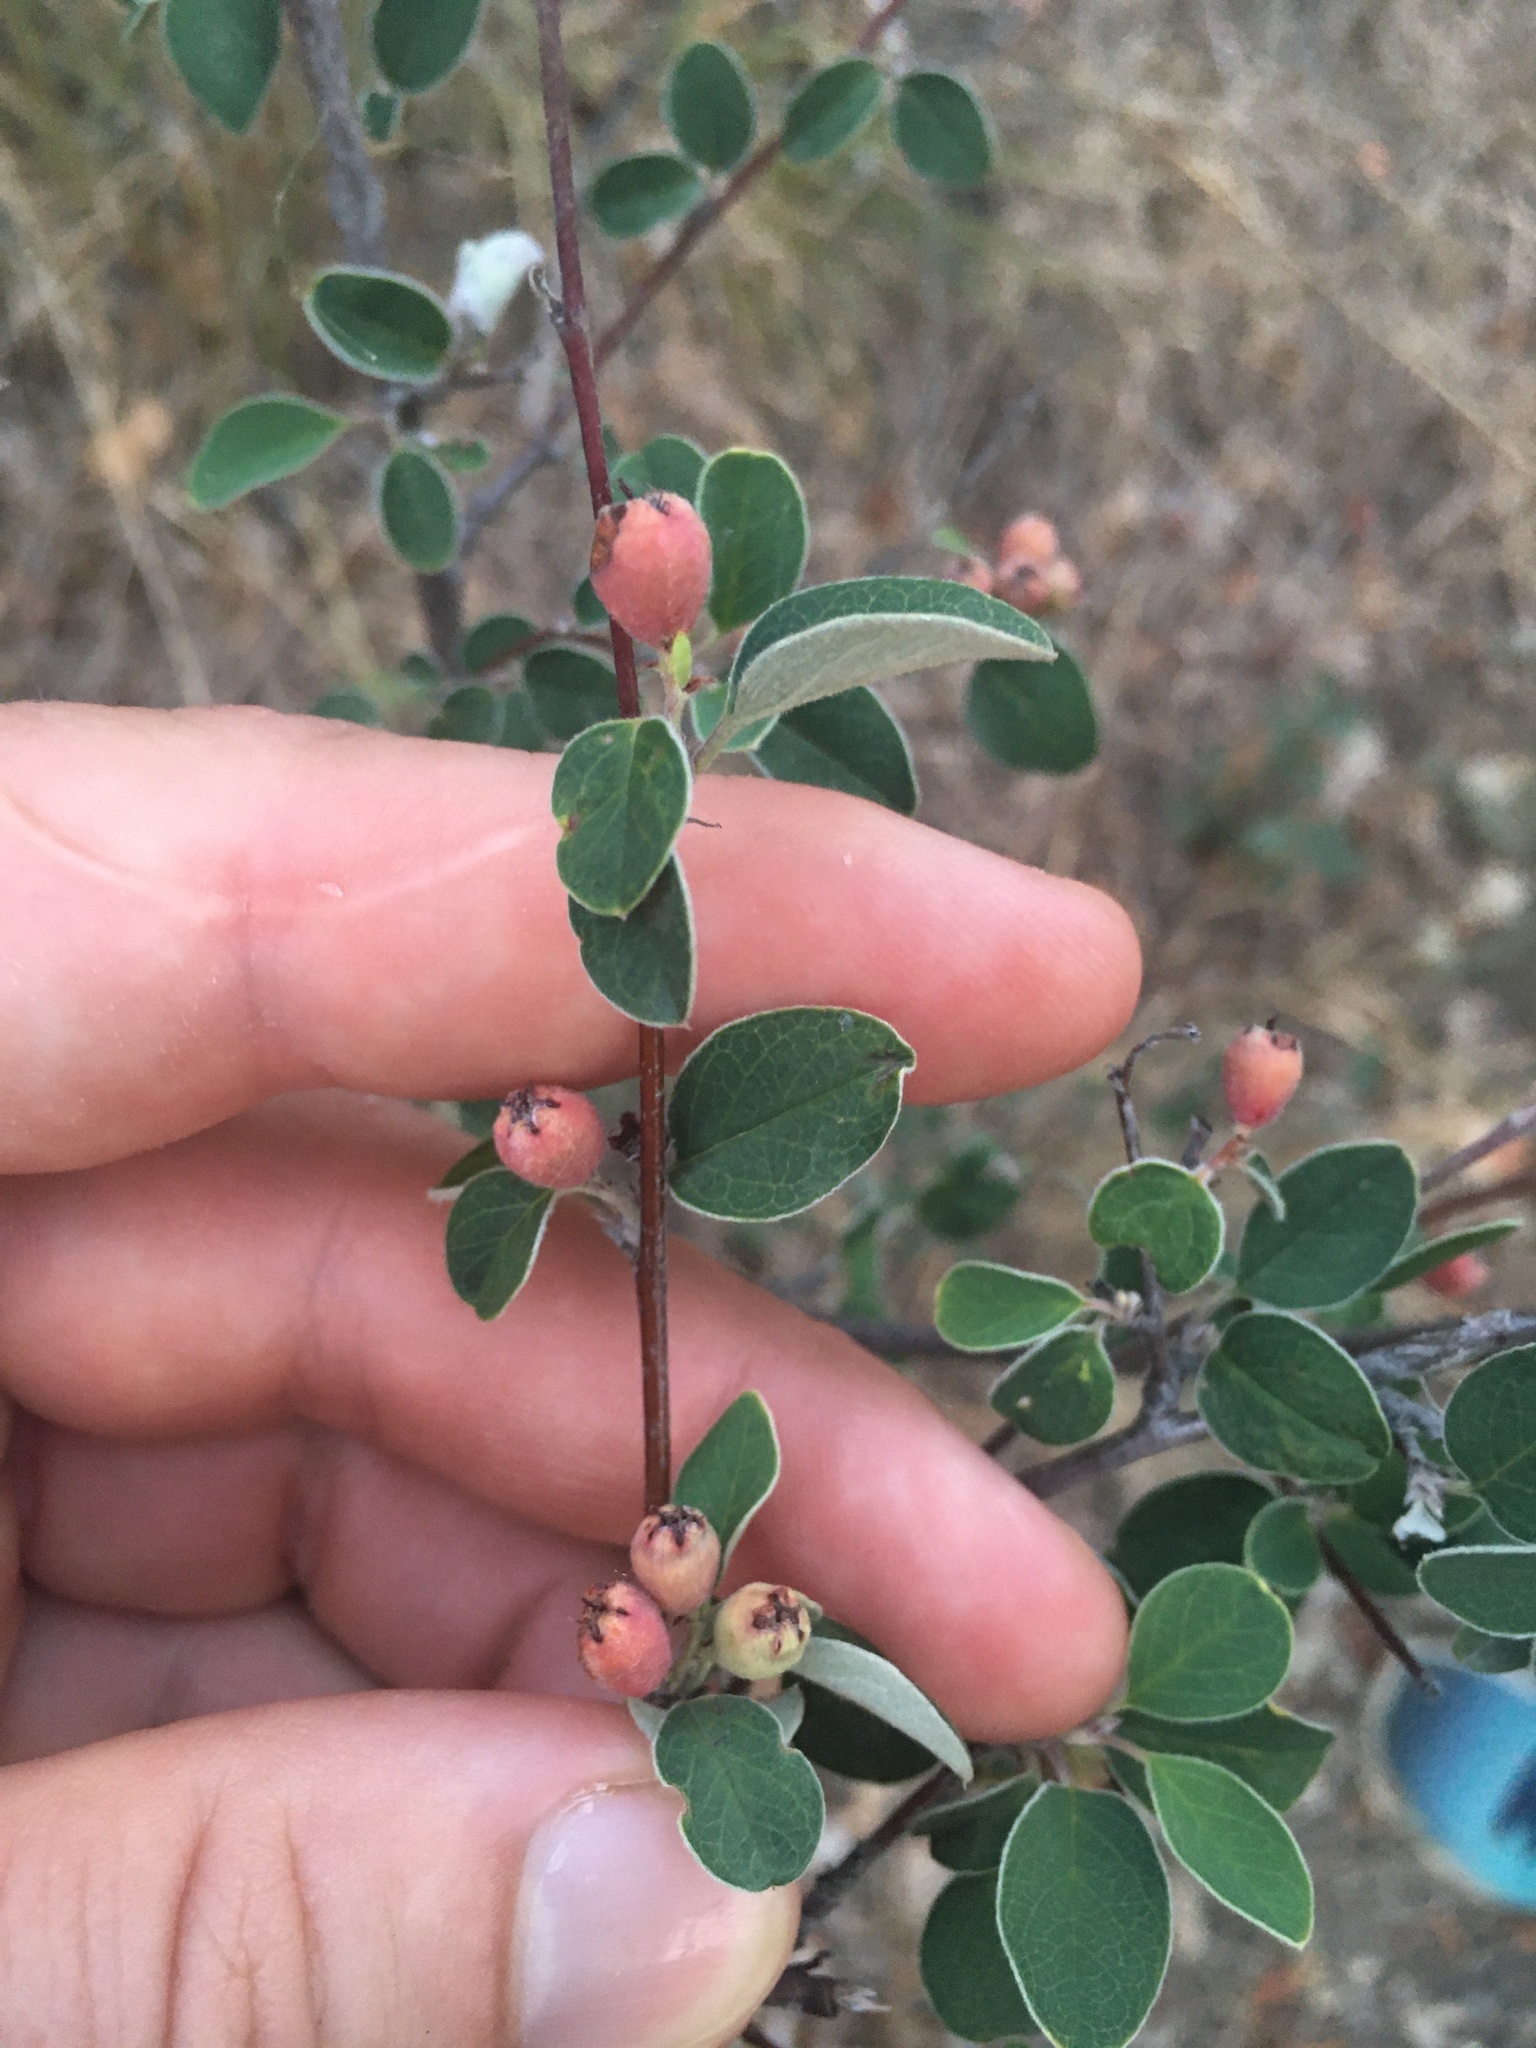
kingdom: Plantae
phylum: Tracheophyta
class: Magnoliopsida
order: Rosales
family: Rosaceae
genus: Cotoneaster
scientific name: Cotoneaster tauricus
